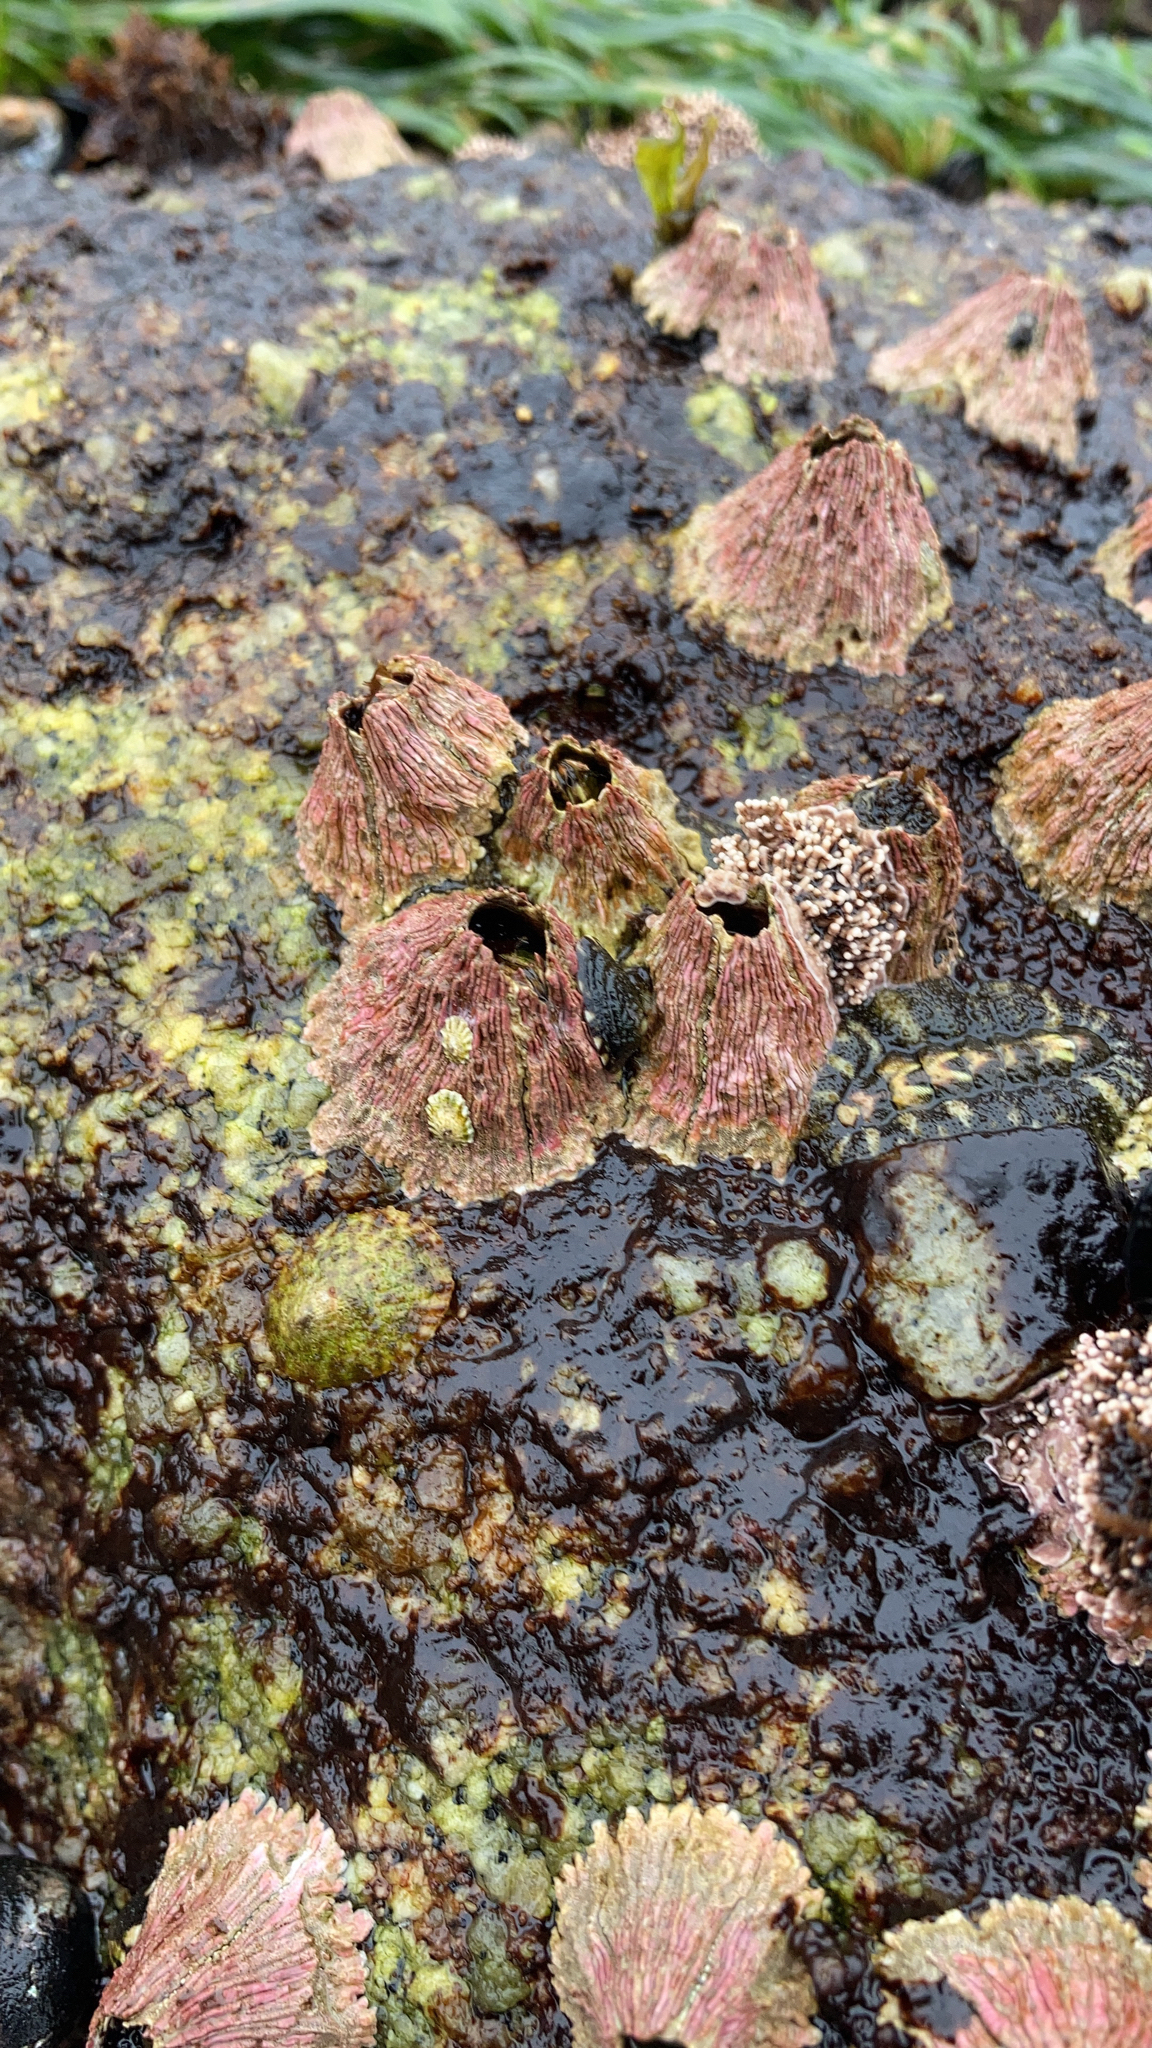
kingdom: Animalia
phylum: Arthropoda
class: Maxillopoda
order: Sessilia
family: Tetraclitidae
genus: Tetraclita
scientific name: Tetraclita rubescens
